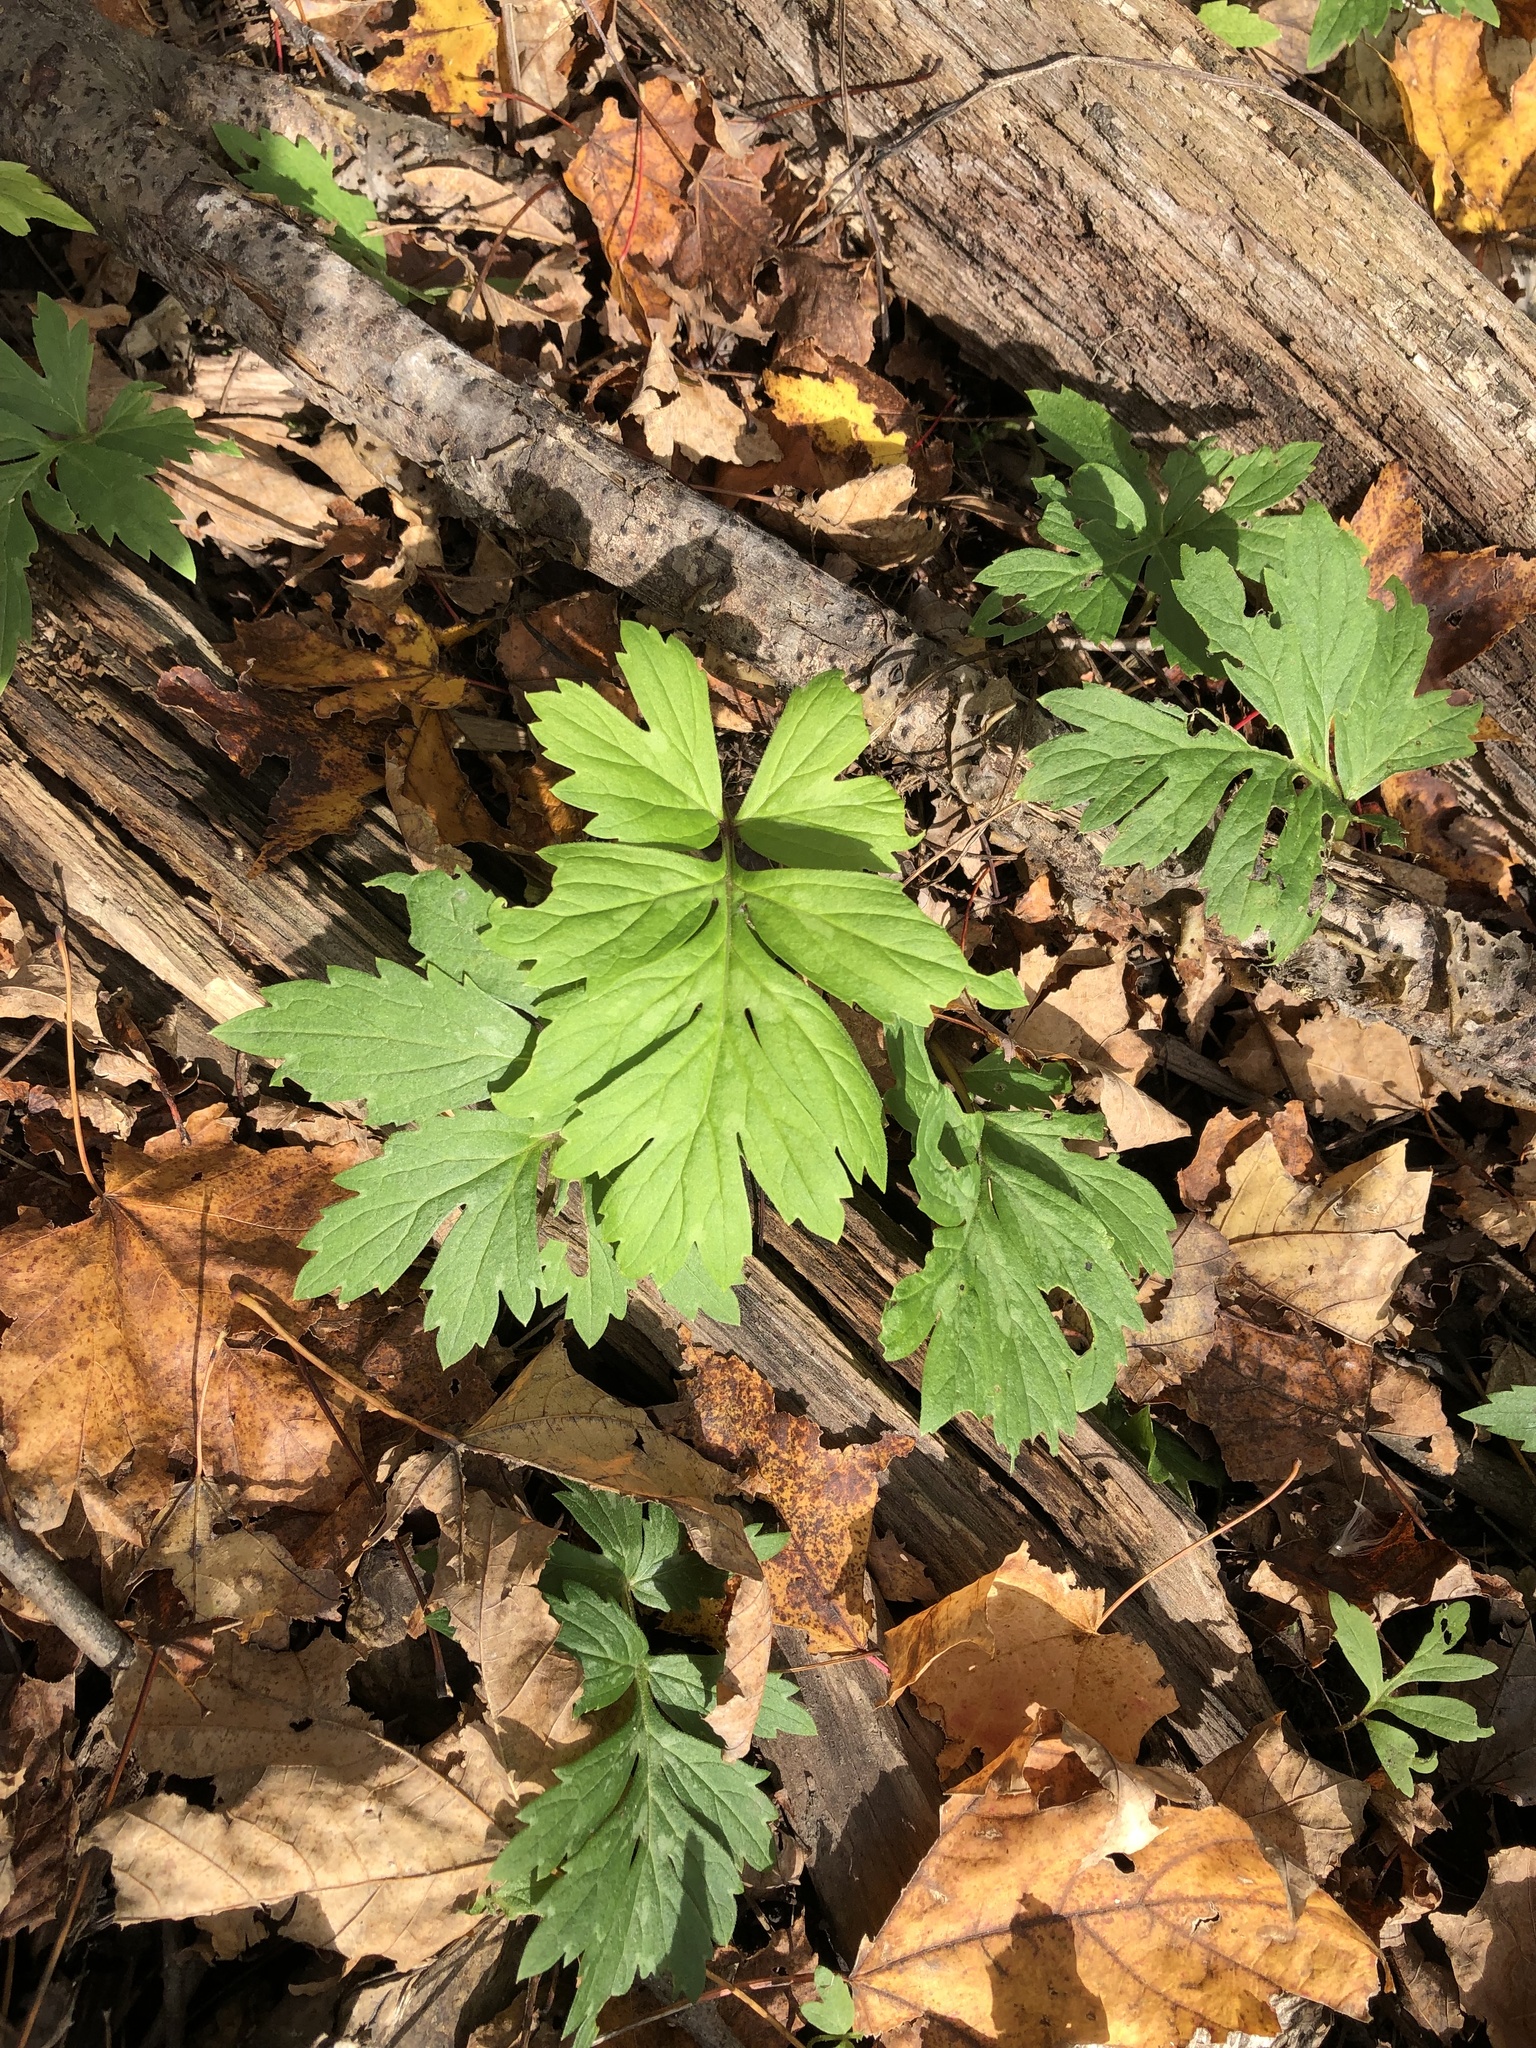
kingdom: Plantae
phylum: Tracheophyta
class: Magnoliopsida
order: Boraginales
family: Hydrophyllaceae
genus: Hydrophyllum
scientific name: Hydrophyllum virginianum
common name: Virginia waterleaf
